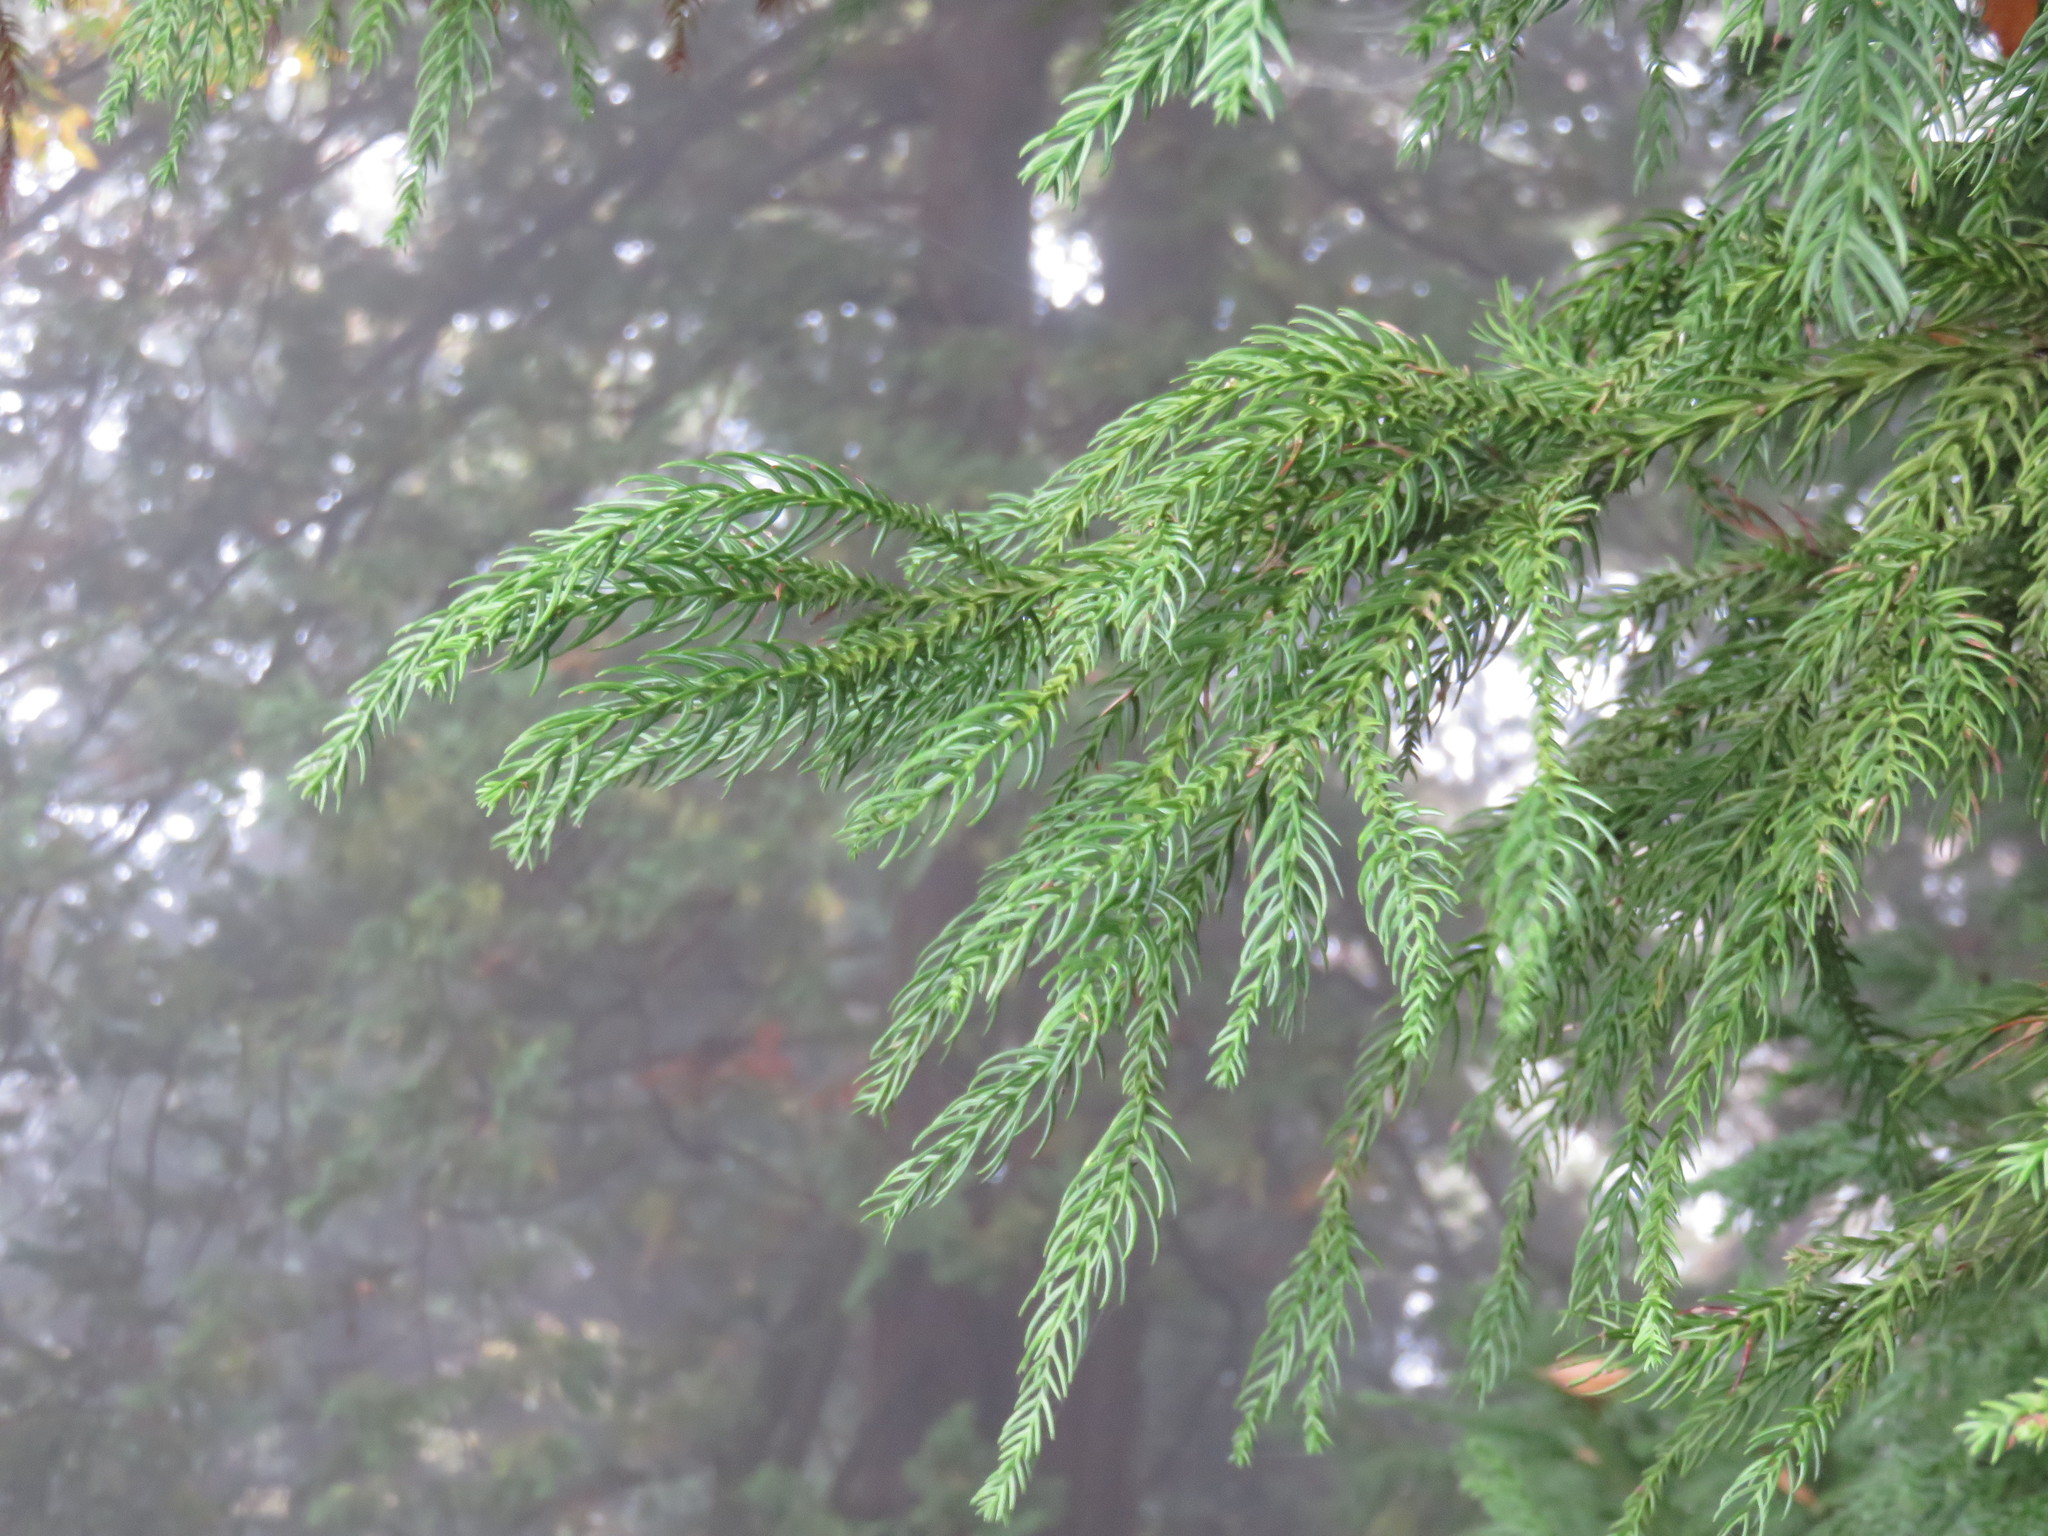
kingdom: Plantae
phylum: Tracheophyta
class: Pinopsida
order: Pinales
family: Cupressaceae
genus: Cryptomeria
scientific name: Cryptomeria japonica
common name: Japanese cedar
